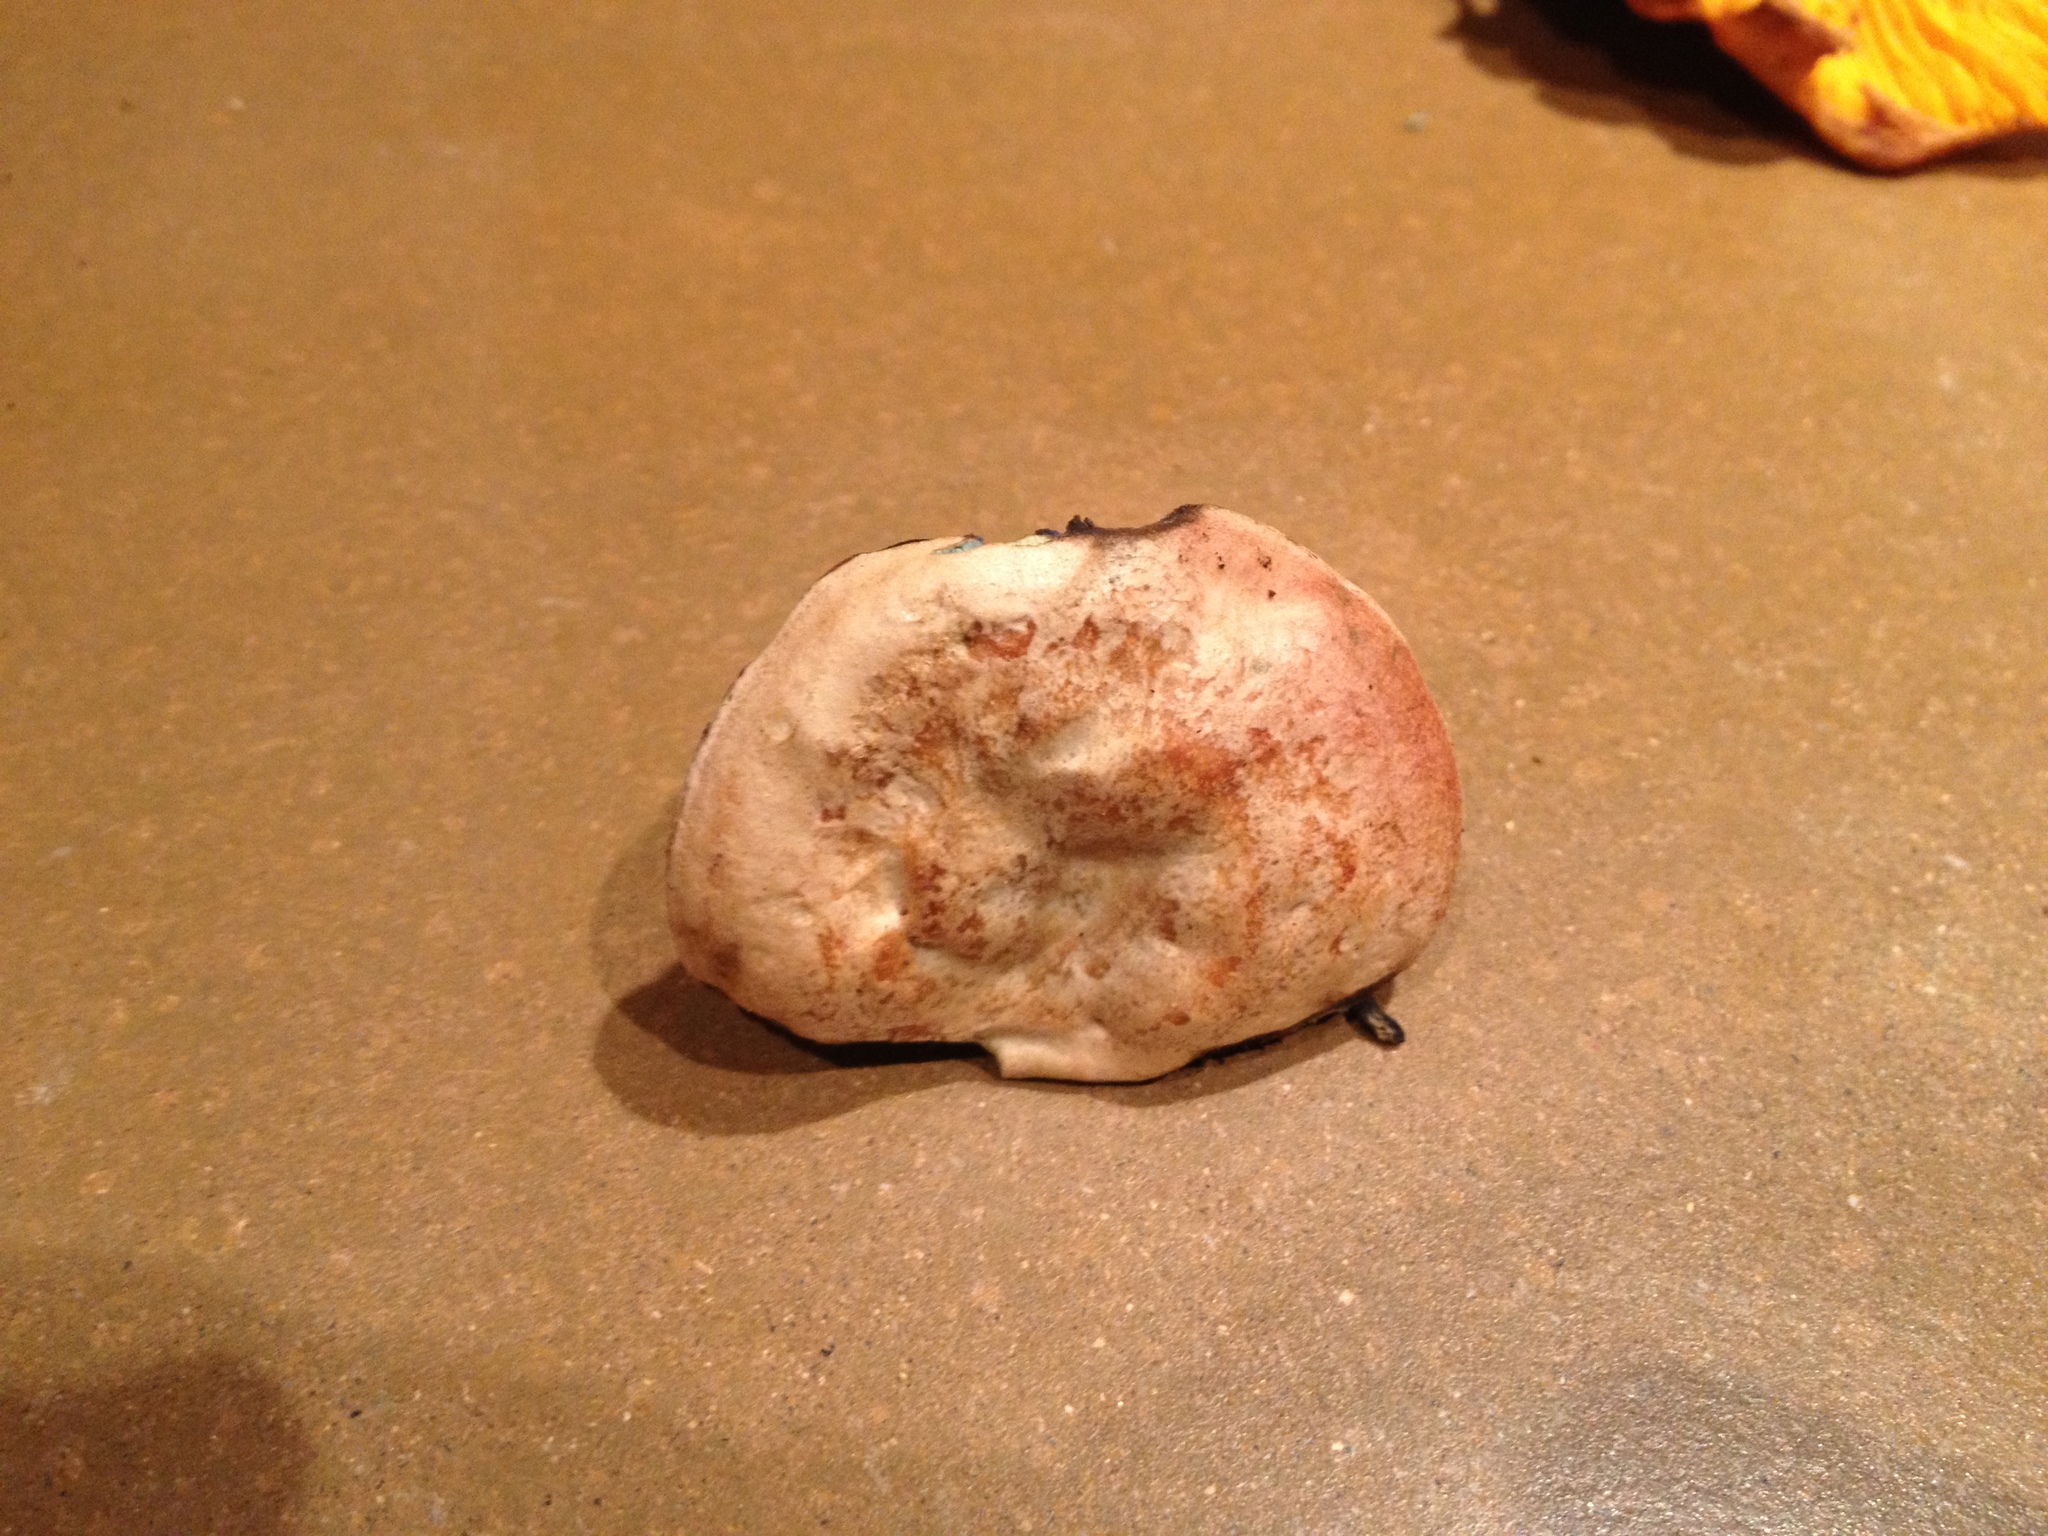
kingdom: Fungi
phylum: Basidiomycota
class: Agaricomycetes
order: Russulales
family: Russulaceae
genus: Lactarius
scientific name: Lactarius deterrimus
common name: False saffron milkcap
